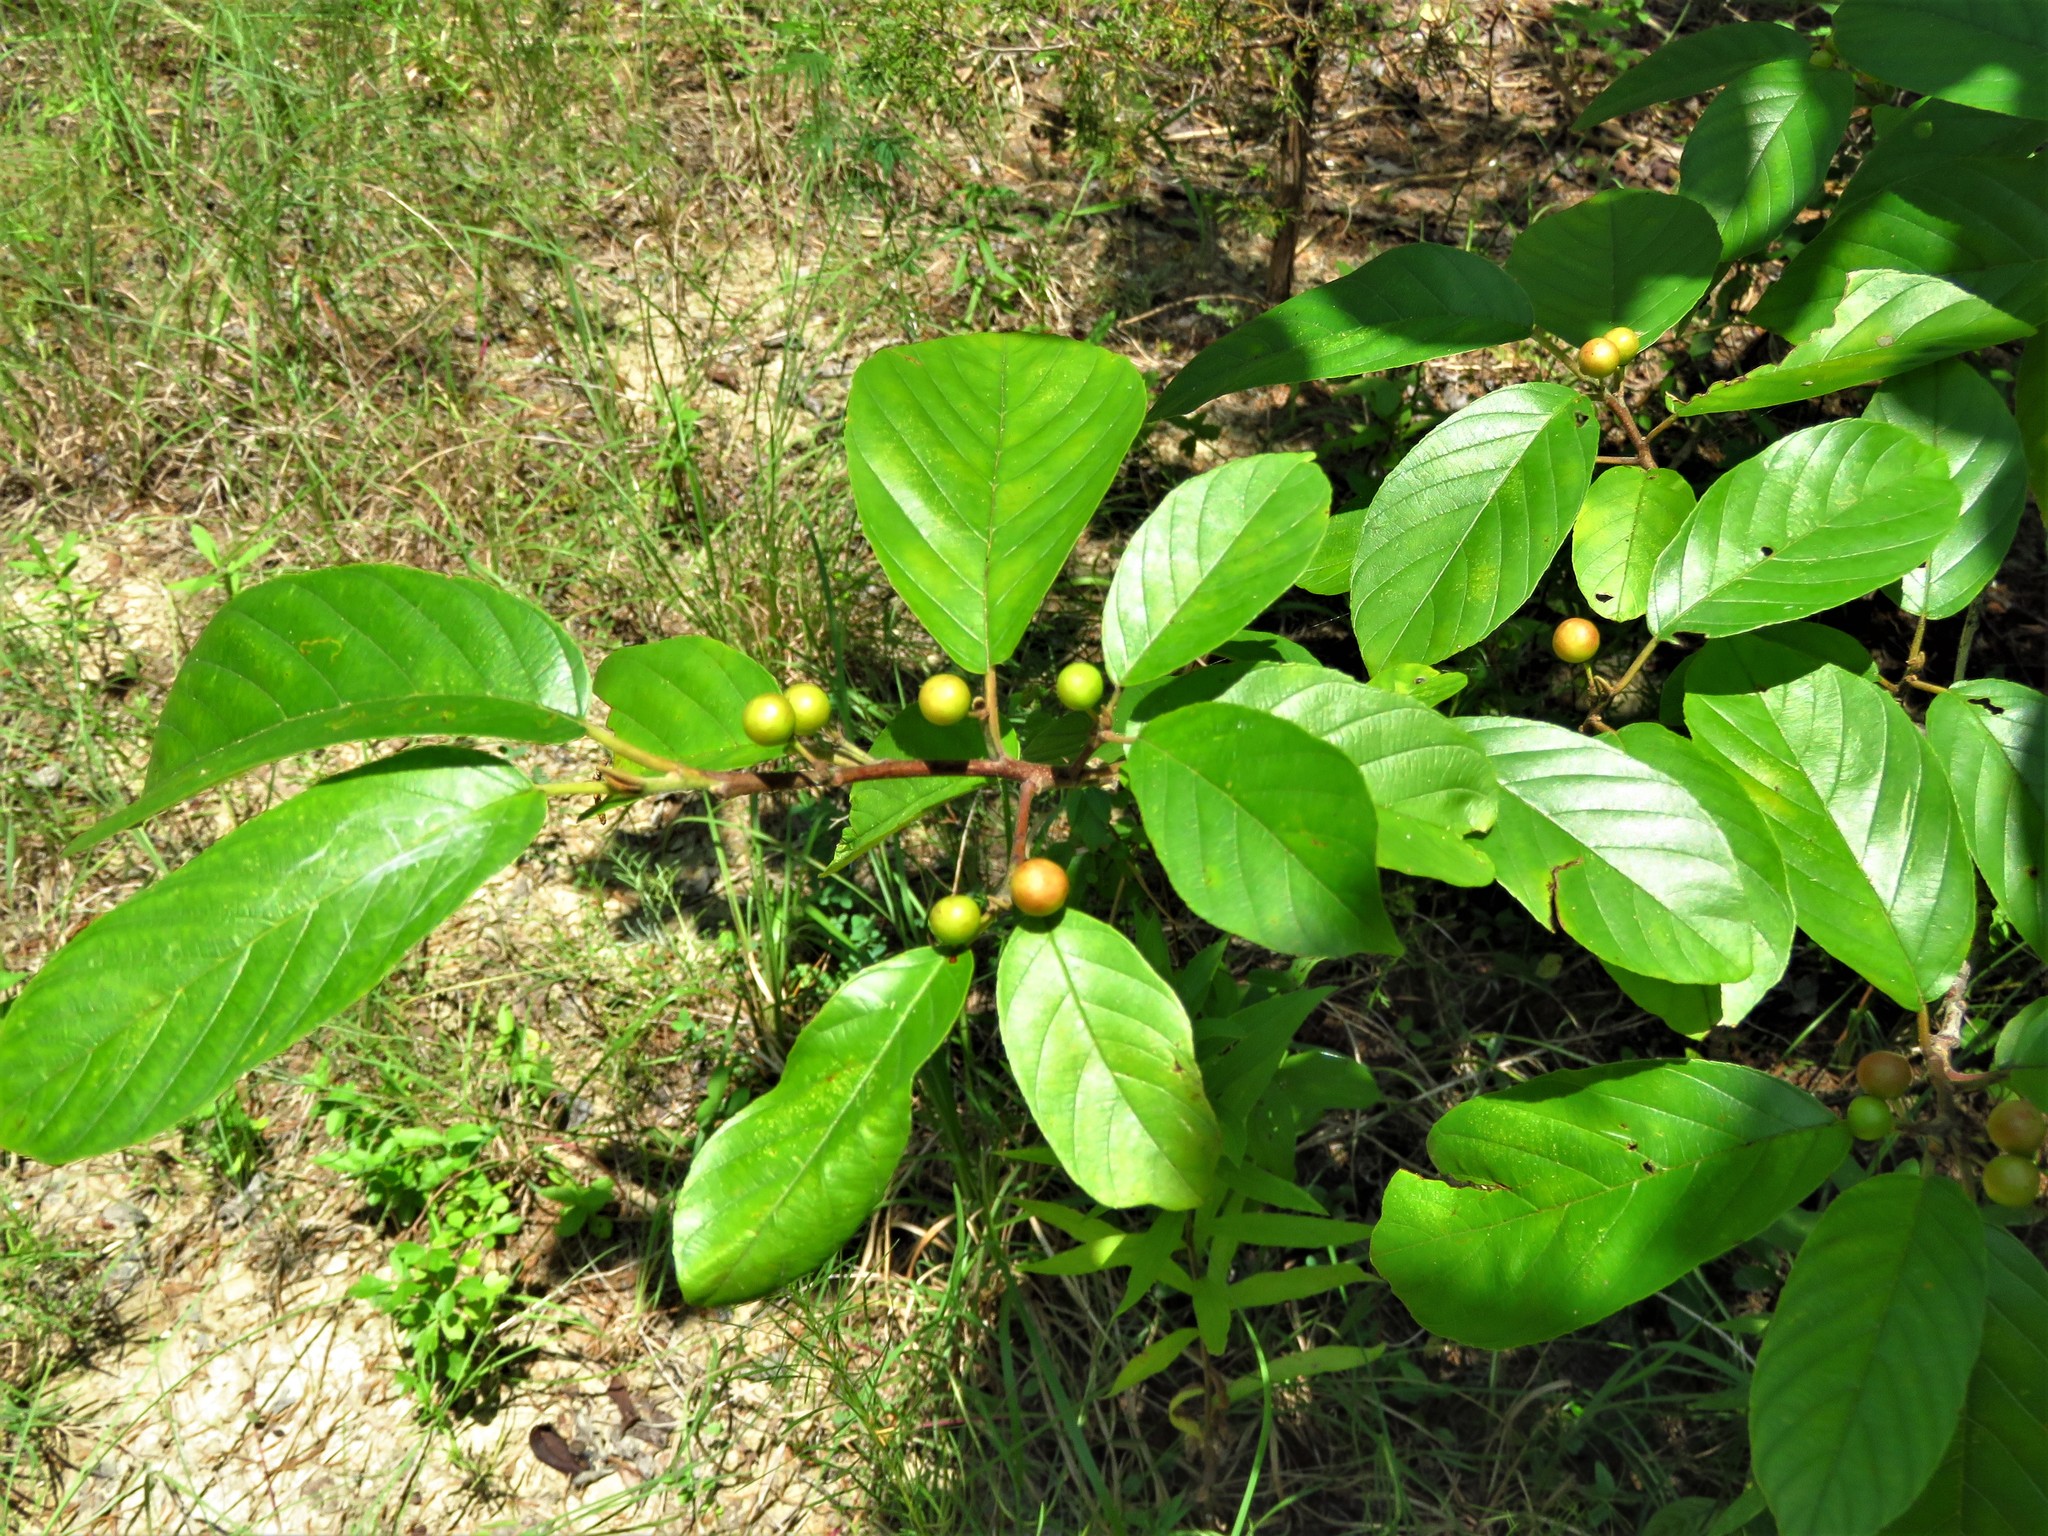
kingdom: Plantae
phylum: Tracheophyta
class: Magnoliopsida
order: Rosales
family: Rhamnaceae
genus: Frangula
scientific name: Frangula caroliniana
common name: Carolina buckthorn
